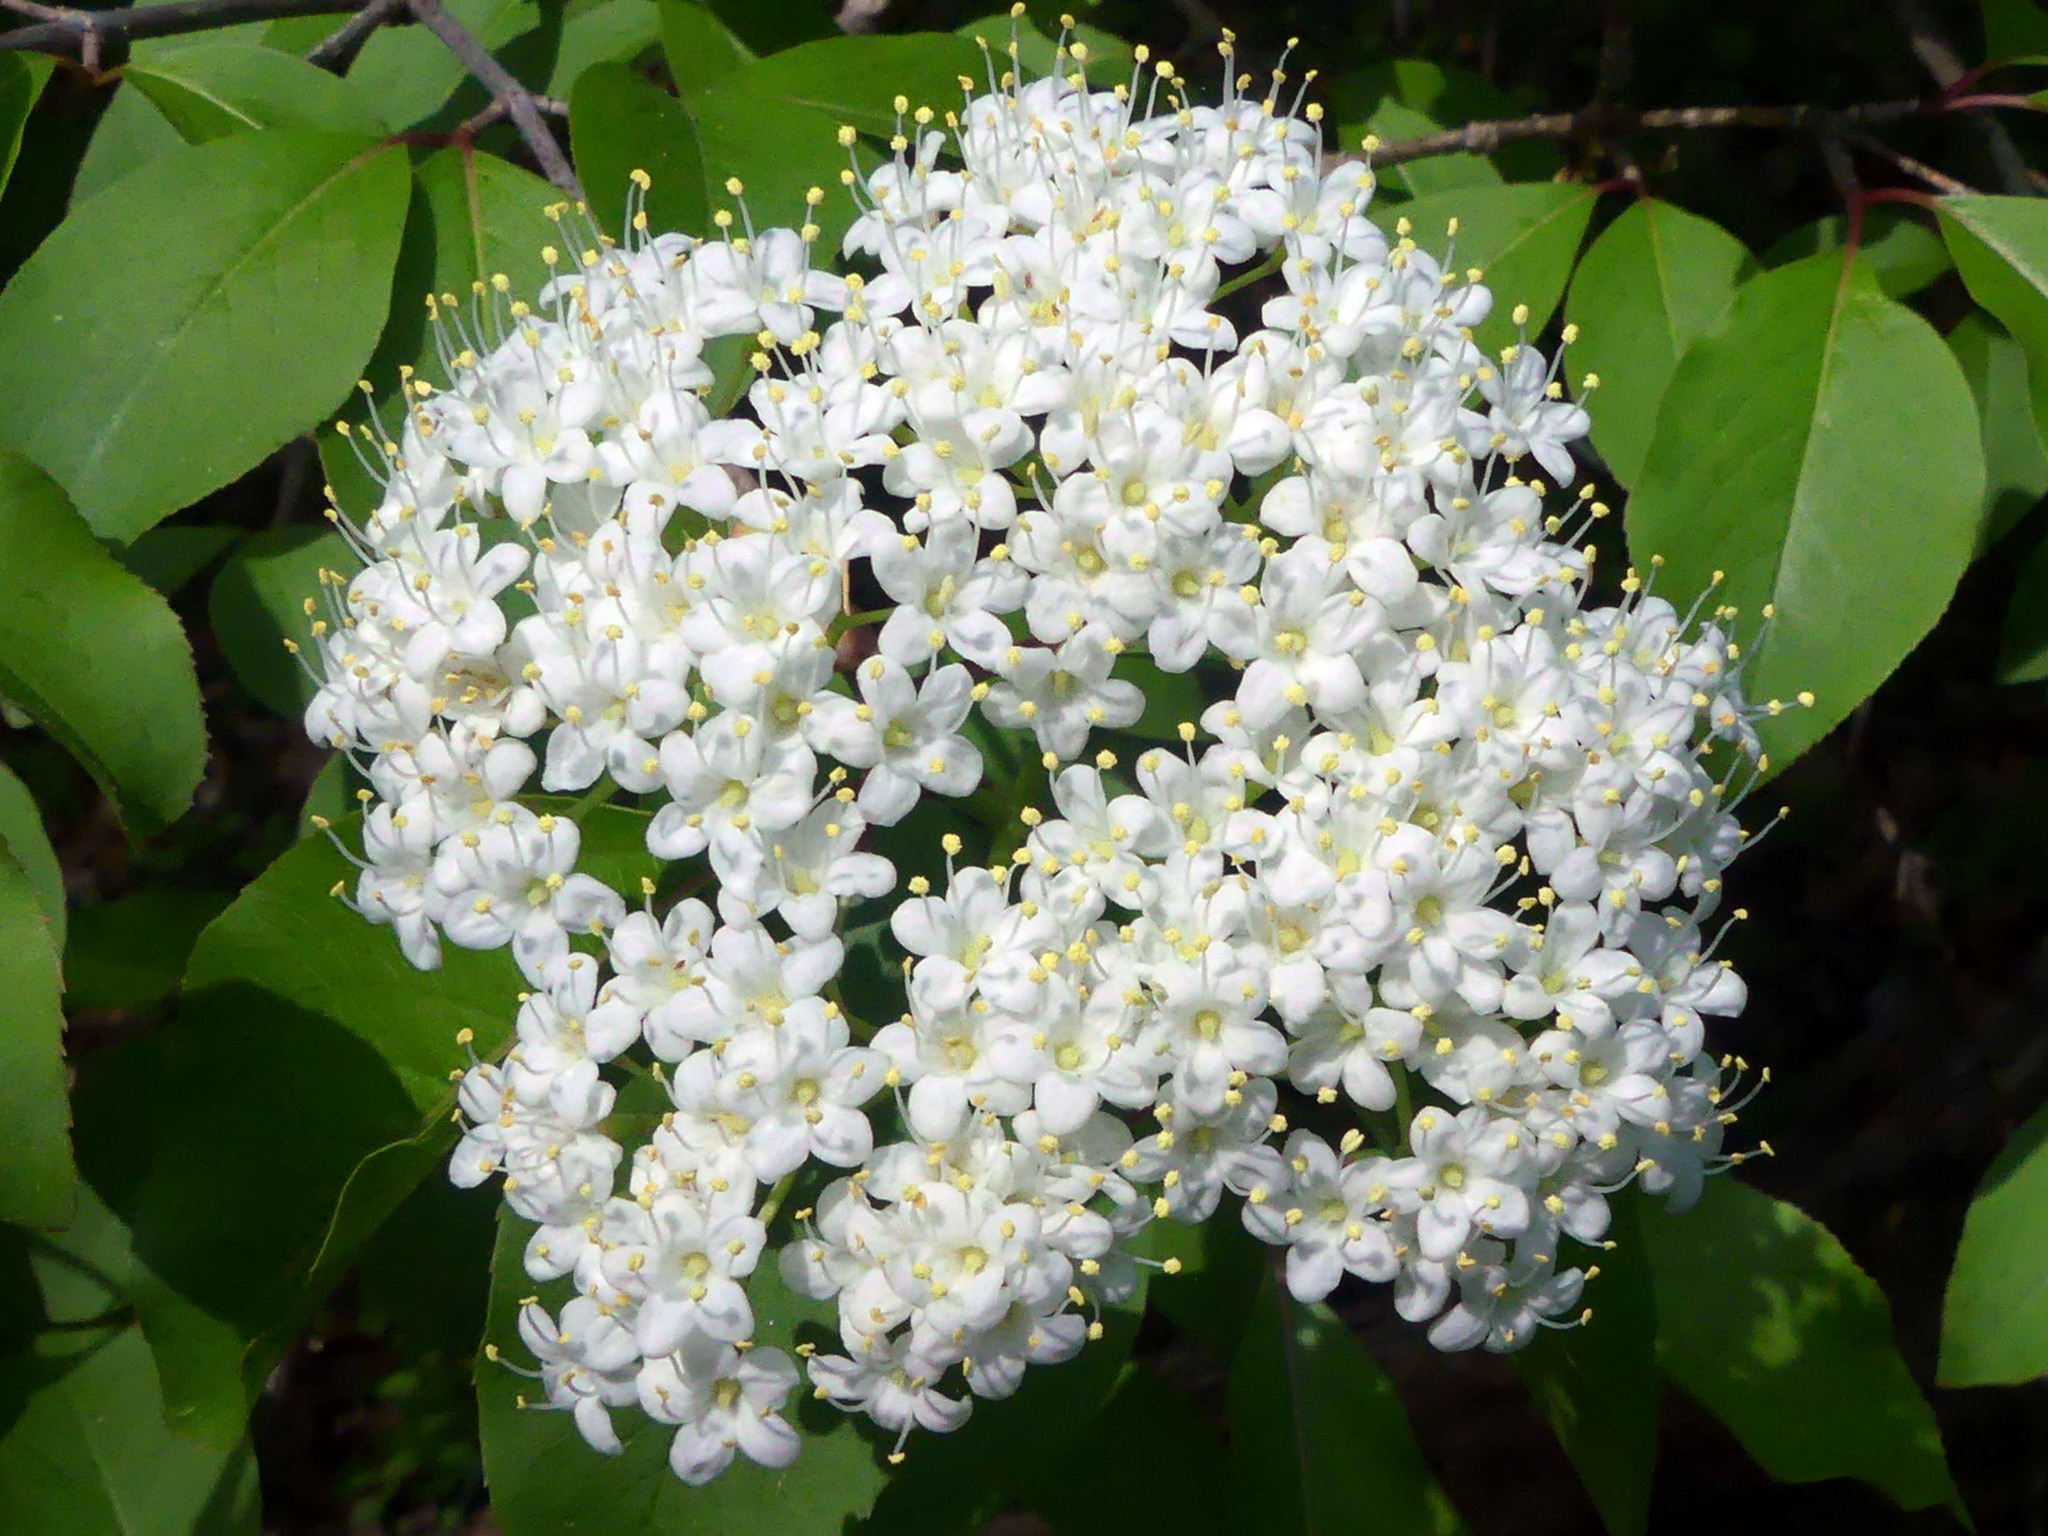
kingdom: Plantae
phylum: Tracheophyta
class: Magnoliopsida
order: Dipsacales
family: Viburnaceae
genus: Viburnum
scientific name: Viburnum prunifolium
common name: Black haw
